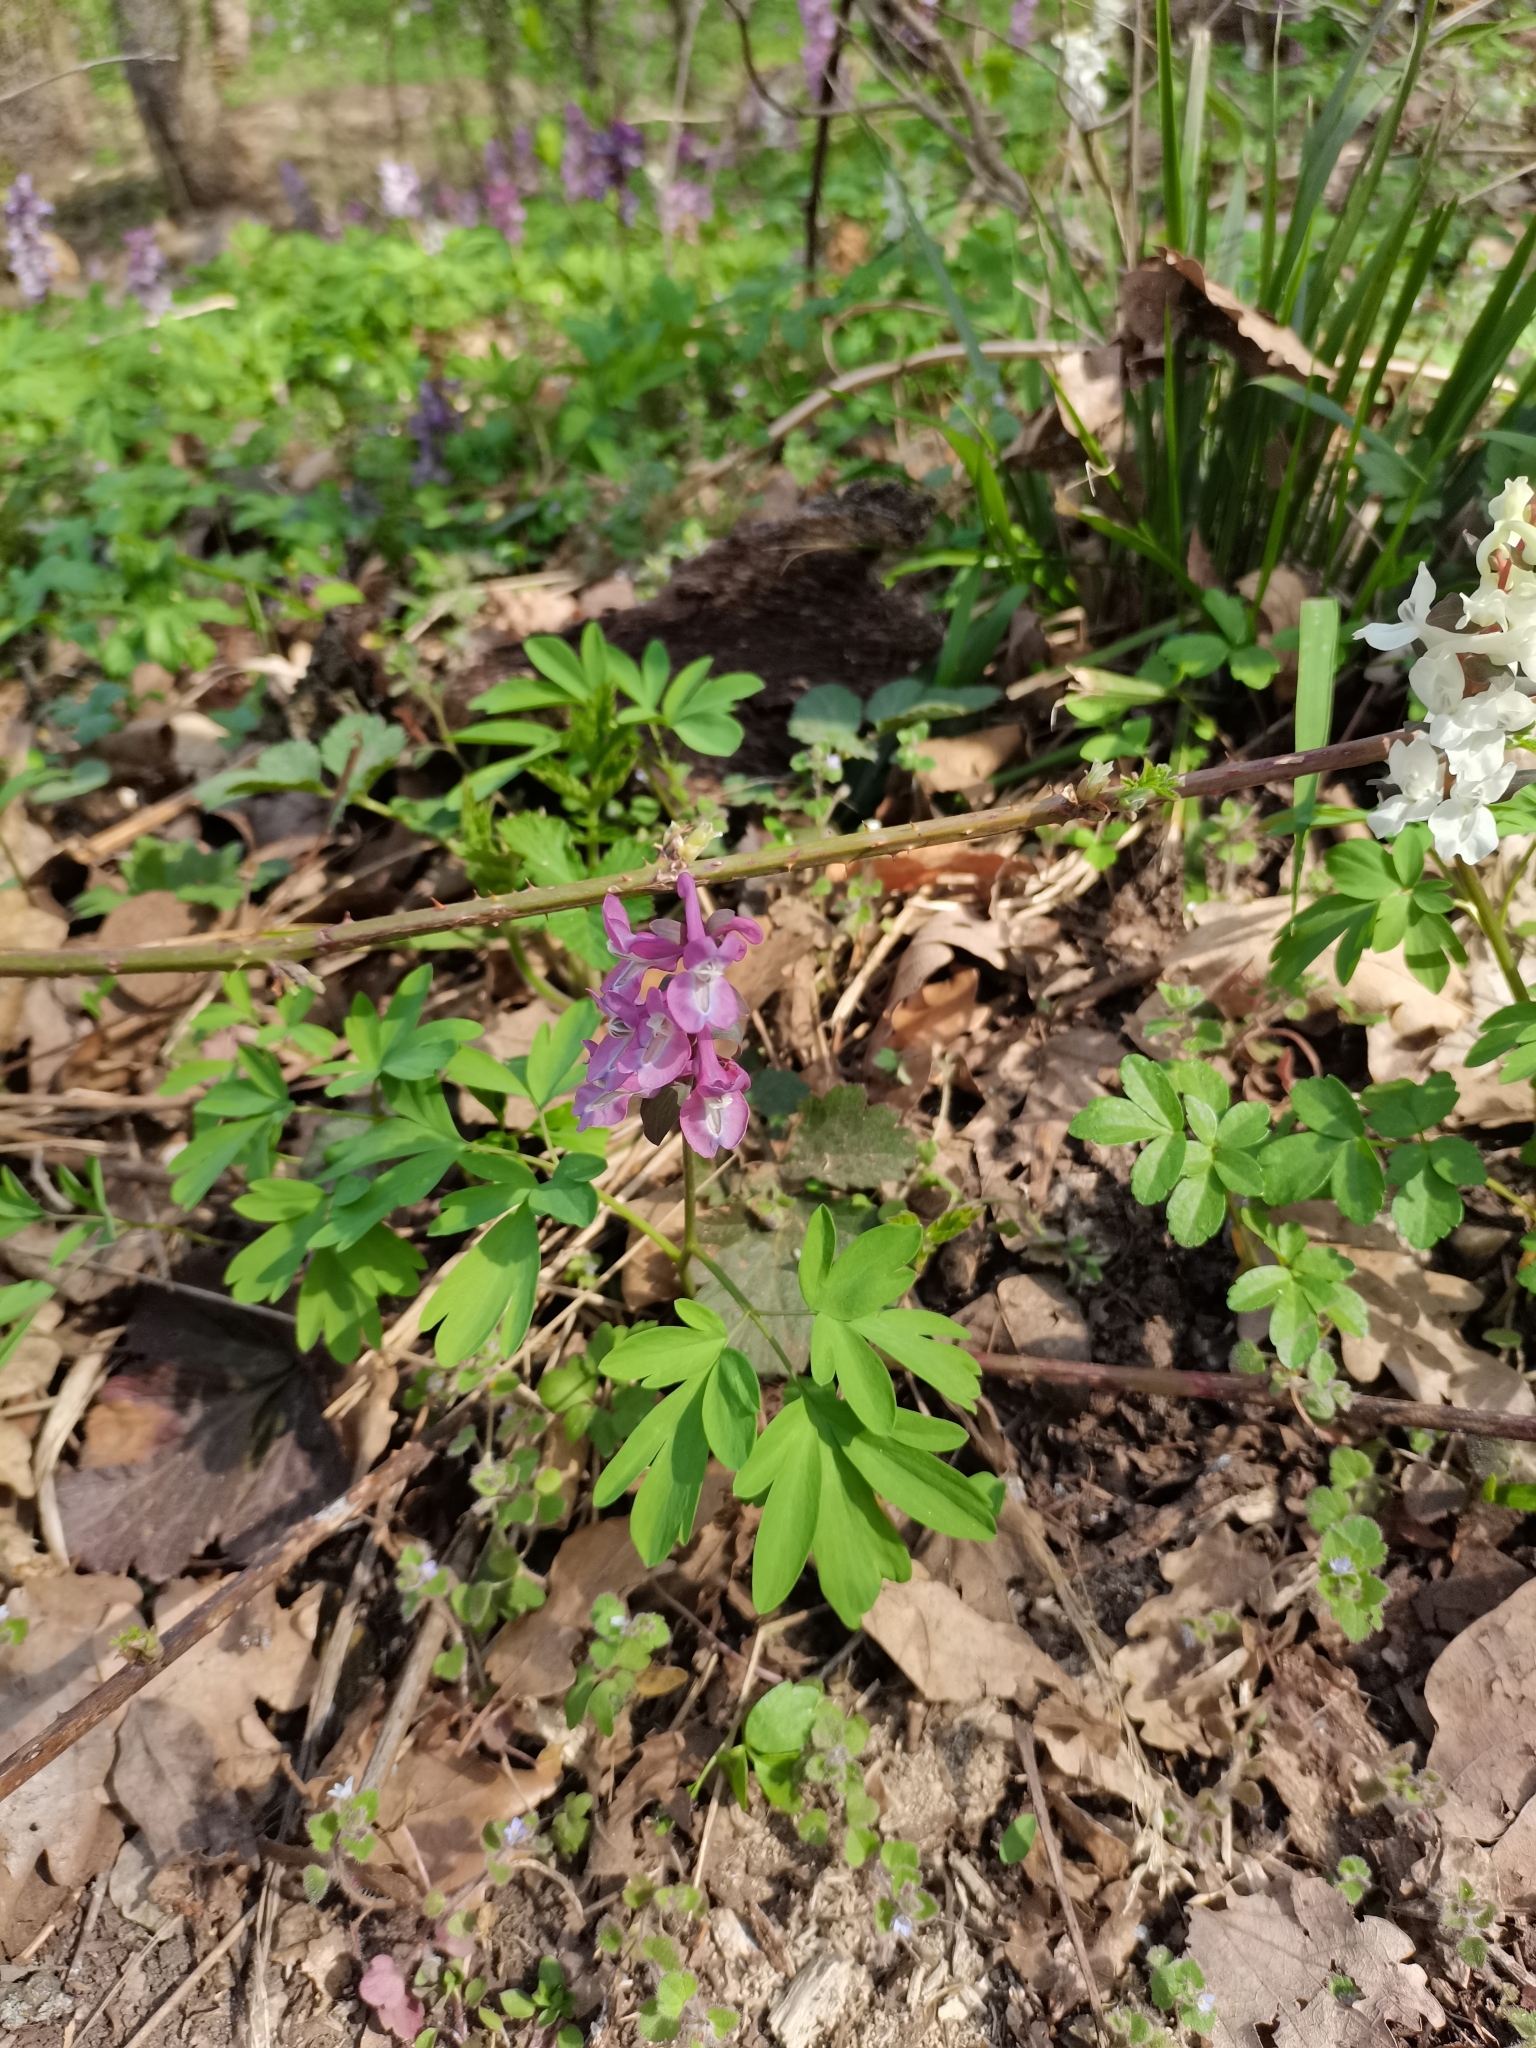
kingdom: Plantae
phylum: Tracheophyta
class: Magnoliopsida
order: Ranunculales
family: Papaveraceae
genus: Corydalis
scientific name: Corydalis cava
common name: Hollowroot
